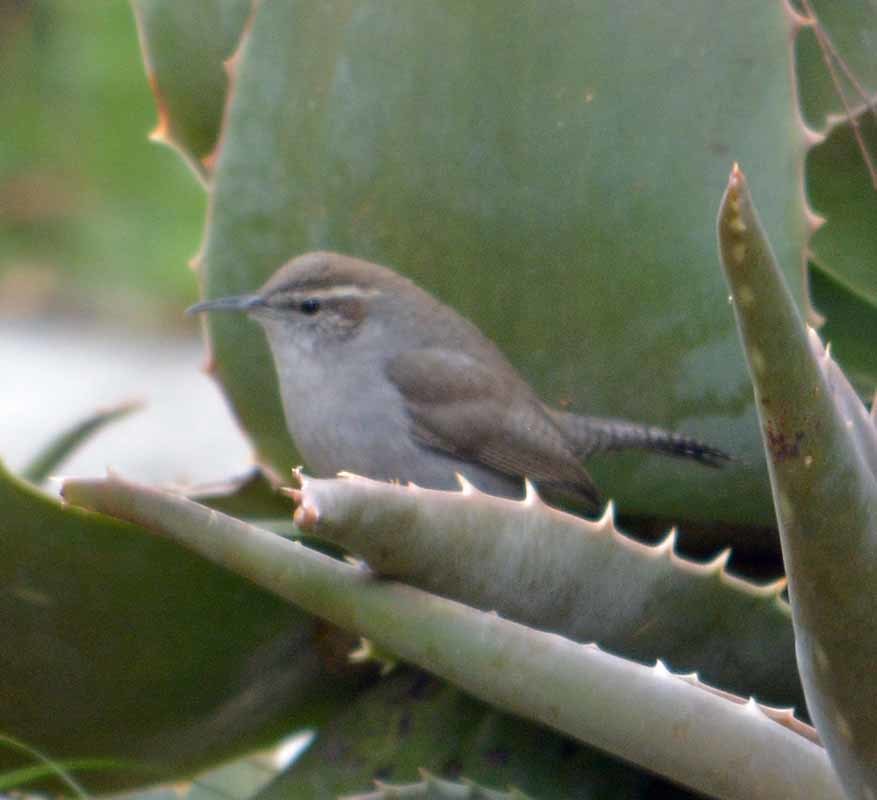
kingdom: Animalia
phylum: Chordata
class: Aves
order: Passeriformes
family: Troglodytidae
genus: Thryomanes
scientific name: Thryomanes bewickii
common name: Bewick's wren
